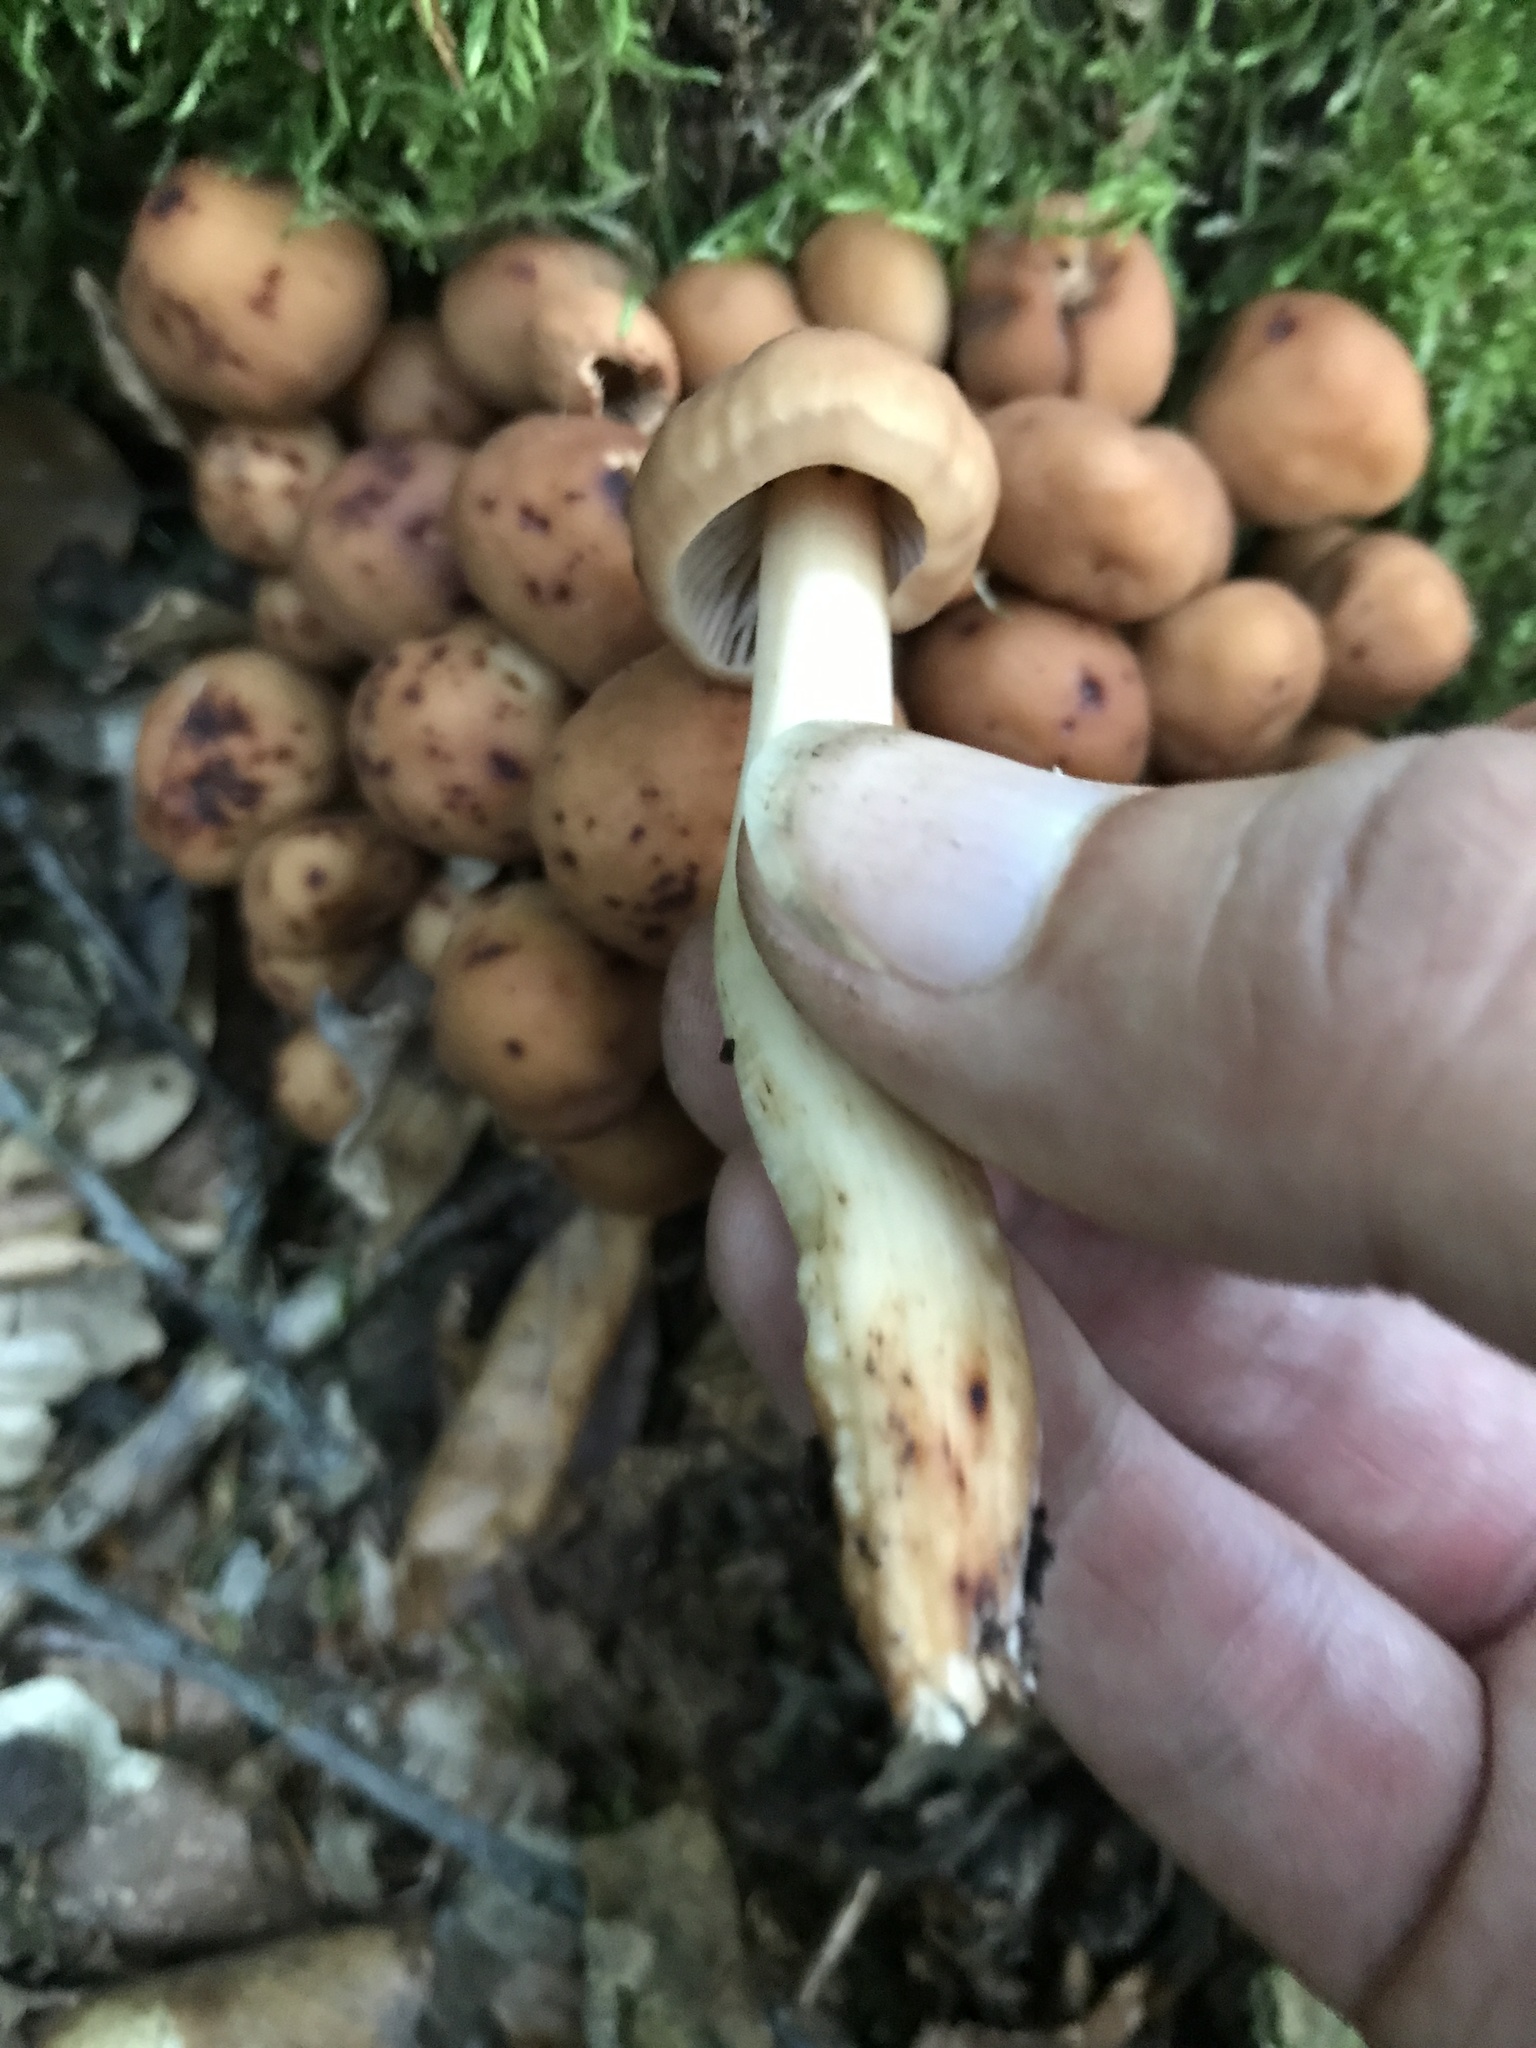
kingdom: Fungi
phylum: Basidiomycota
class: Agaricomycetes
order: Agaricales
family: Omphalotaceae
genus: Gymnopus
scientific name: Gymnopus fusipes
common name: Spindle shank
